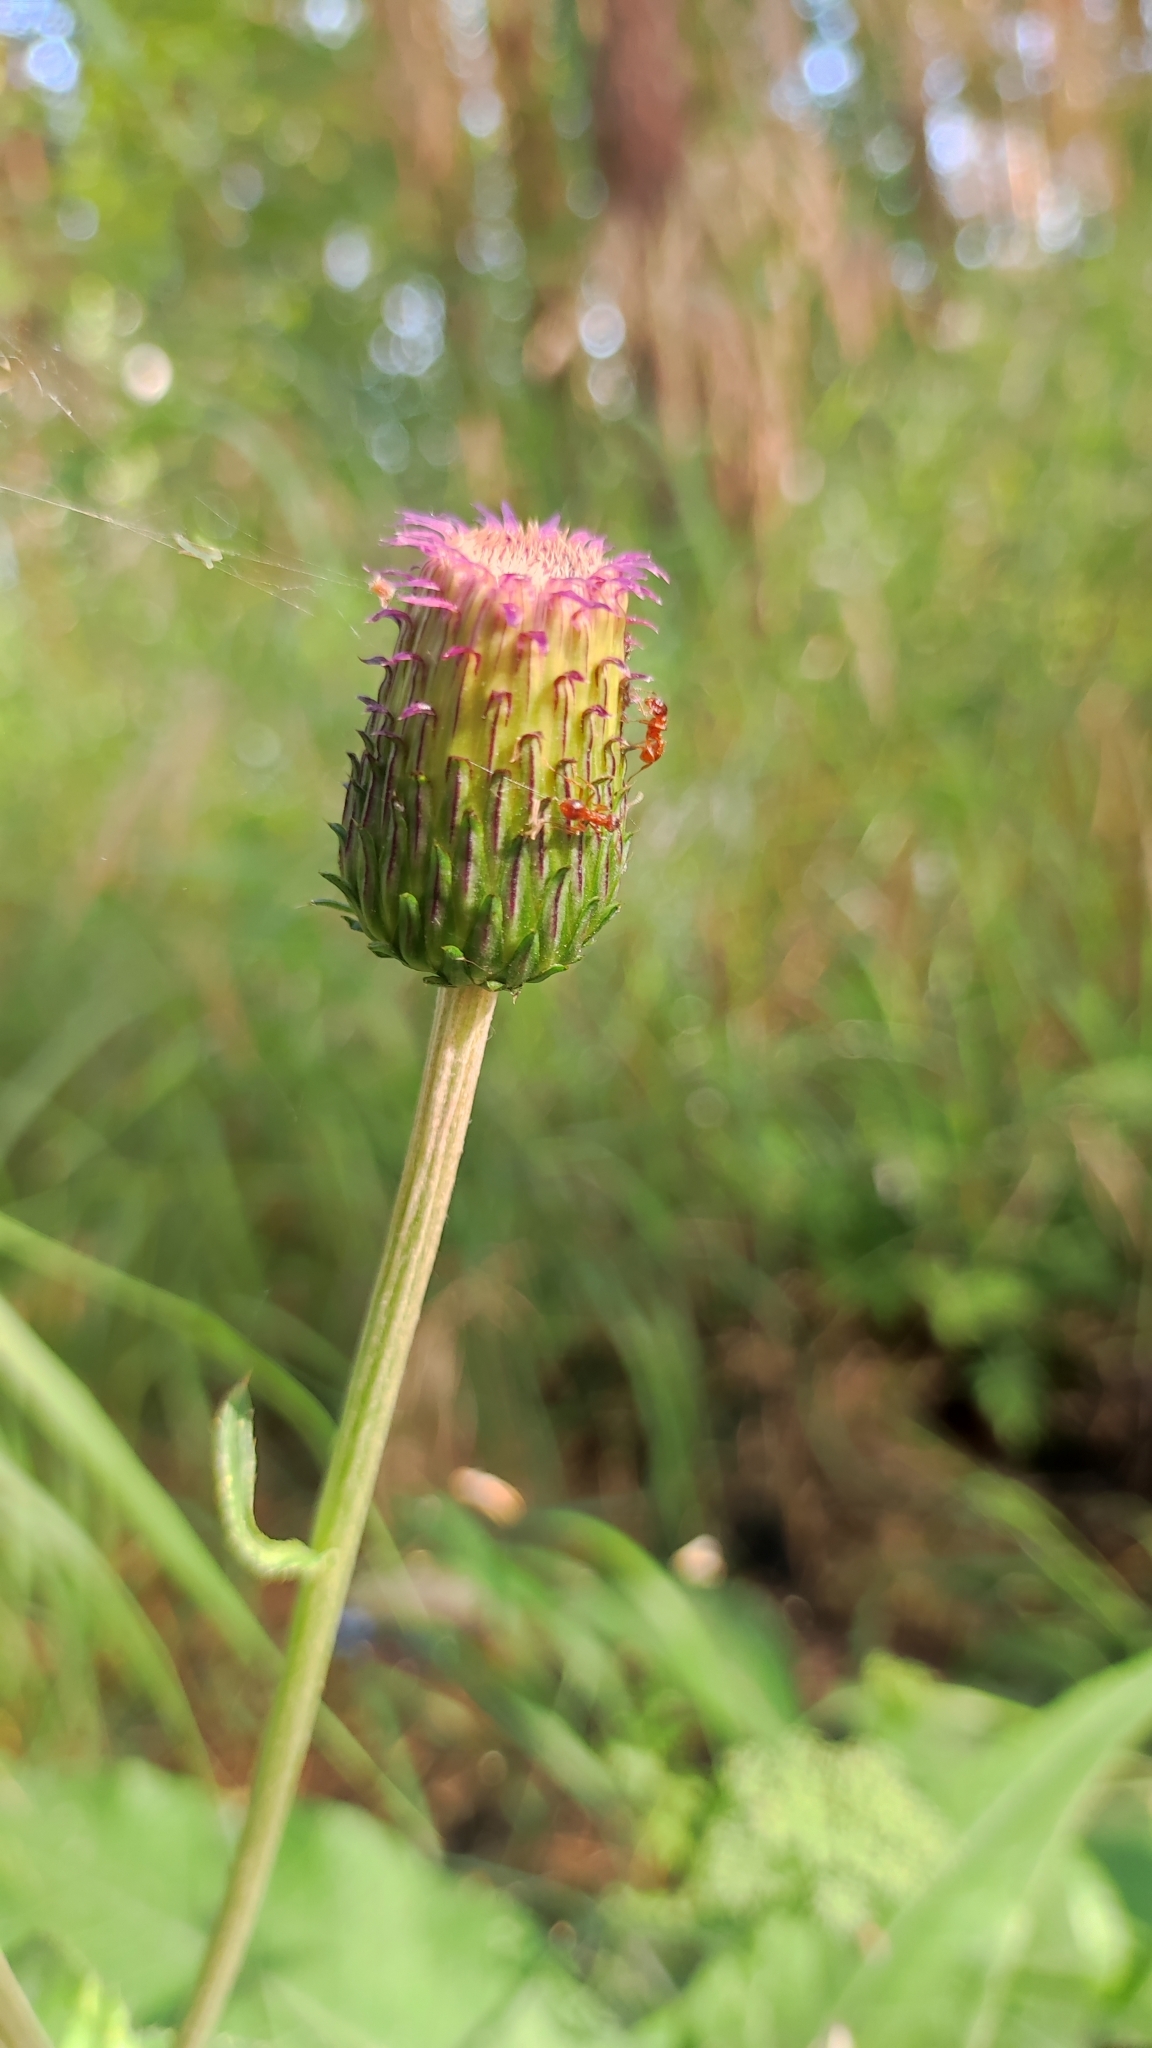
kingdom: Plantae
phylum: Tracheophyta
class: Magnoliopsida
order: Asterales
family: Asteraceae
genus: Cirsium
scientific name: Cirsium heterophyllum
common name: Melancholy thistle
